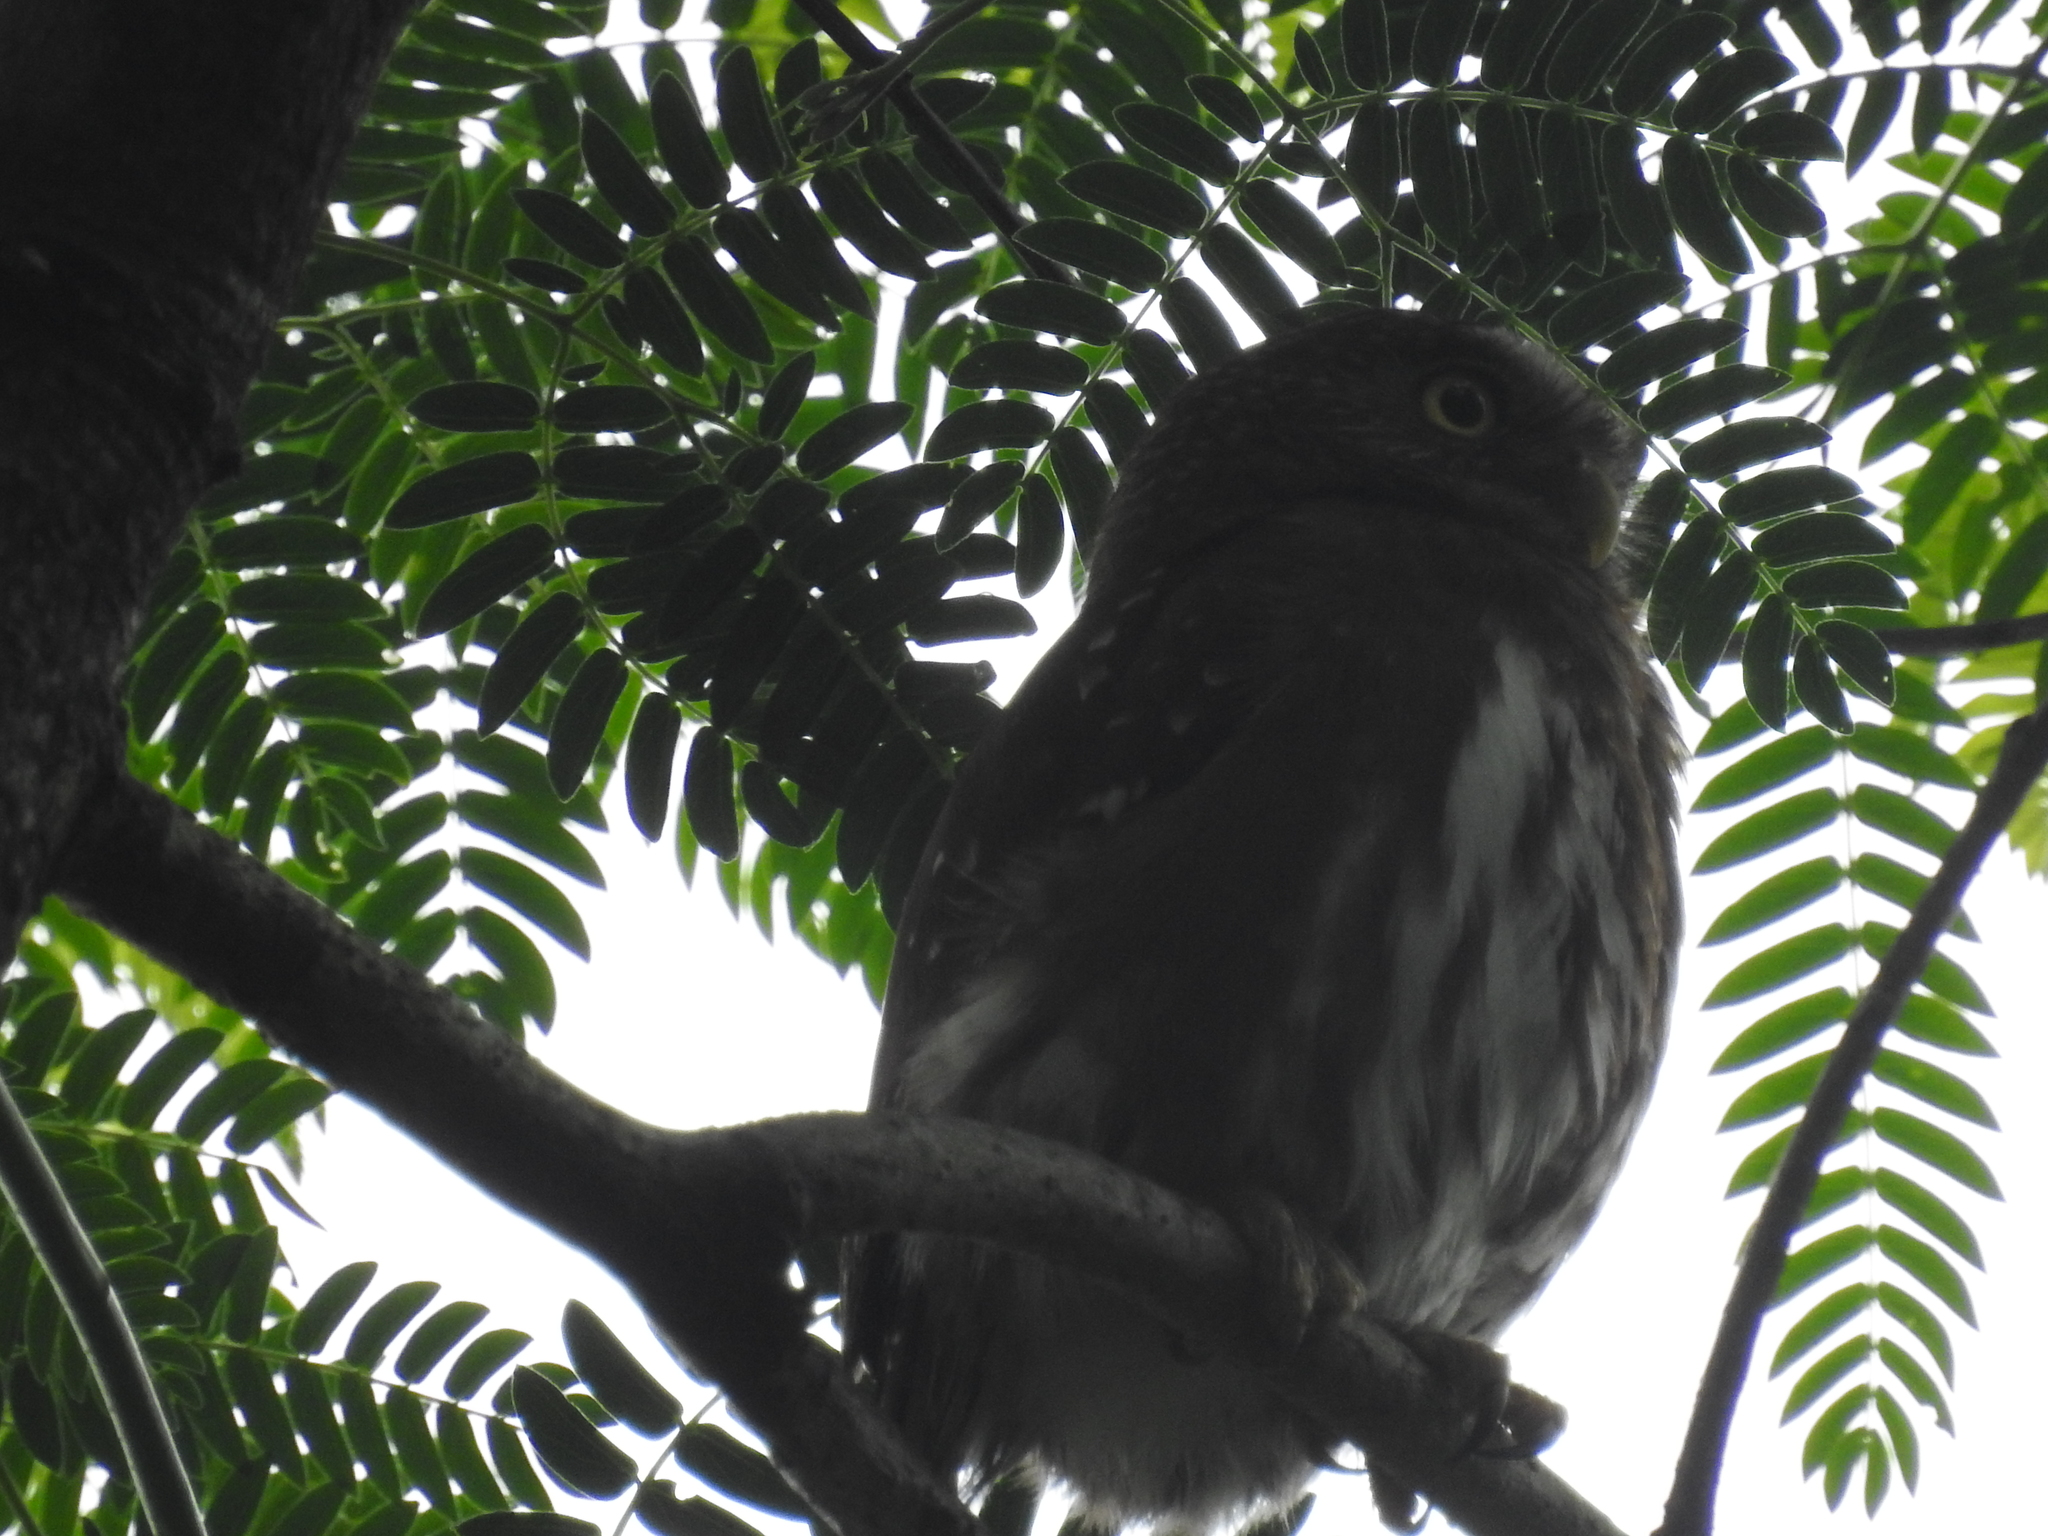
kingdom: Animalia
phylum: Chordata
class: Aves
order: Strigiformes
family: Strigidae
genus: Glaucidium
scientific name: Glaucidium brasilianum
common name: Ferruginous pygmy-owl
